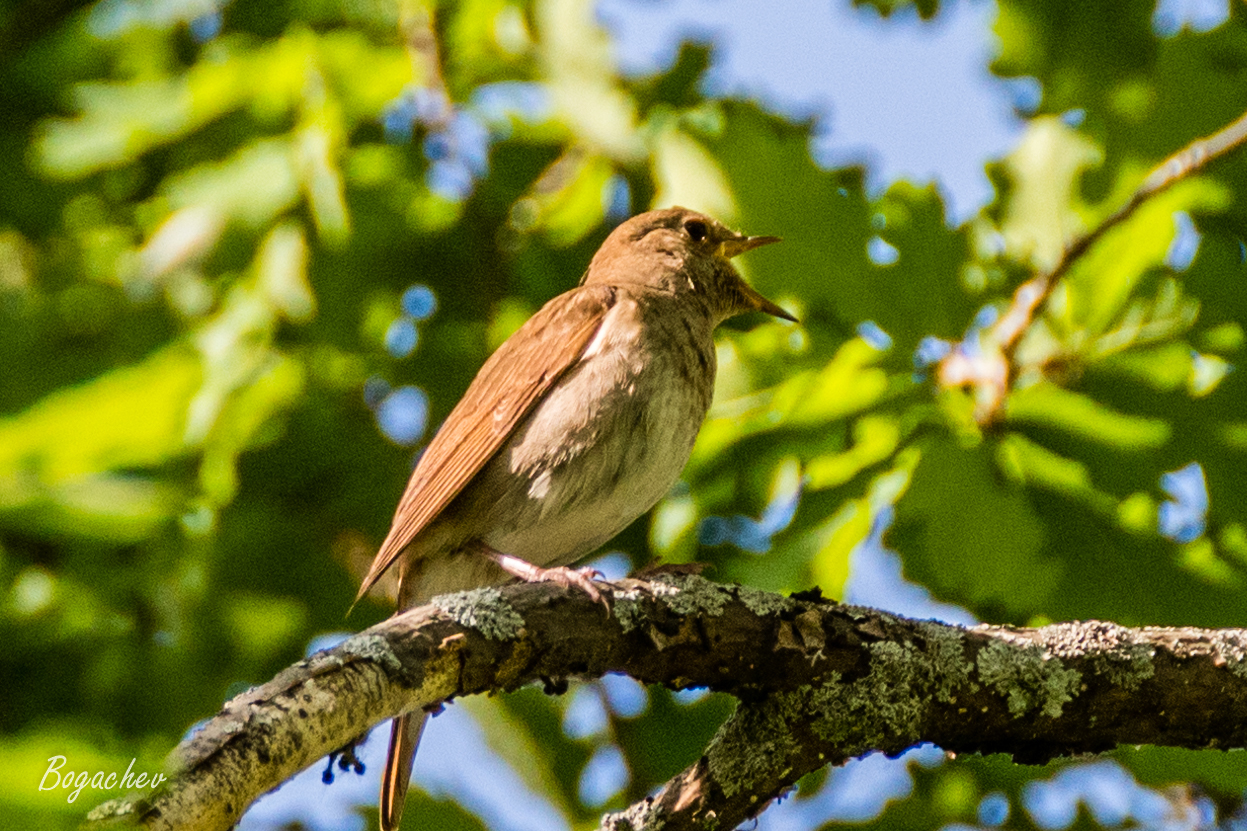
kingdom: Animalia
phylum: Chordata
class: Aves
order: Passeriformes
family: Muscicapidae
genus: Luscinia
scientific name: Luscinia luscinia
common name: Thrush nightingale
